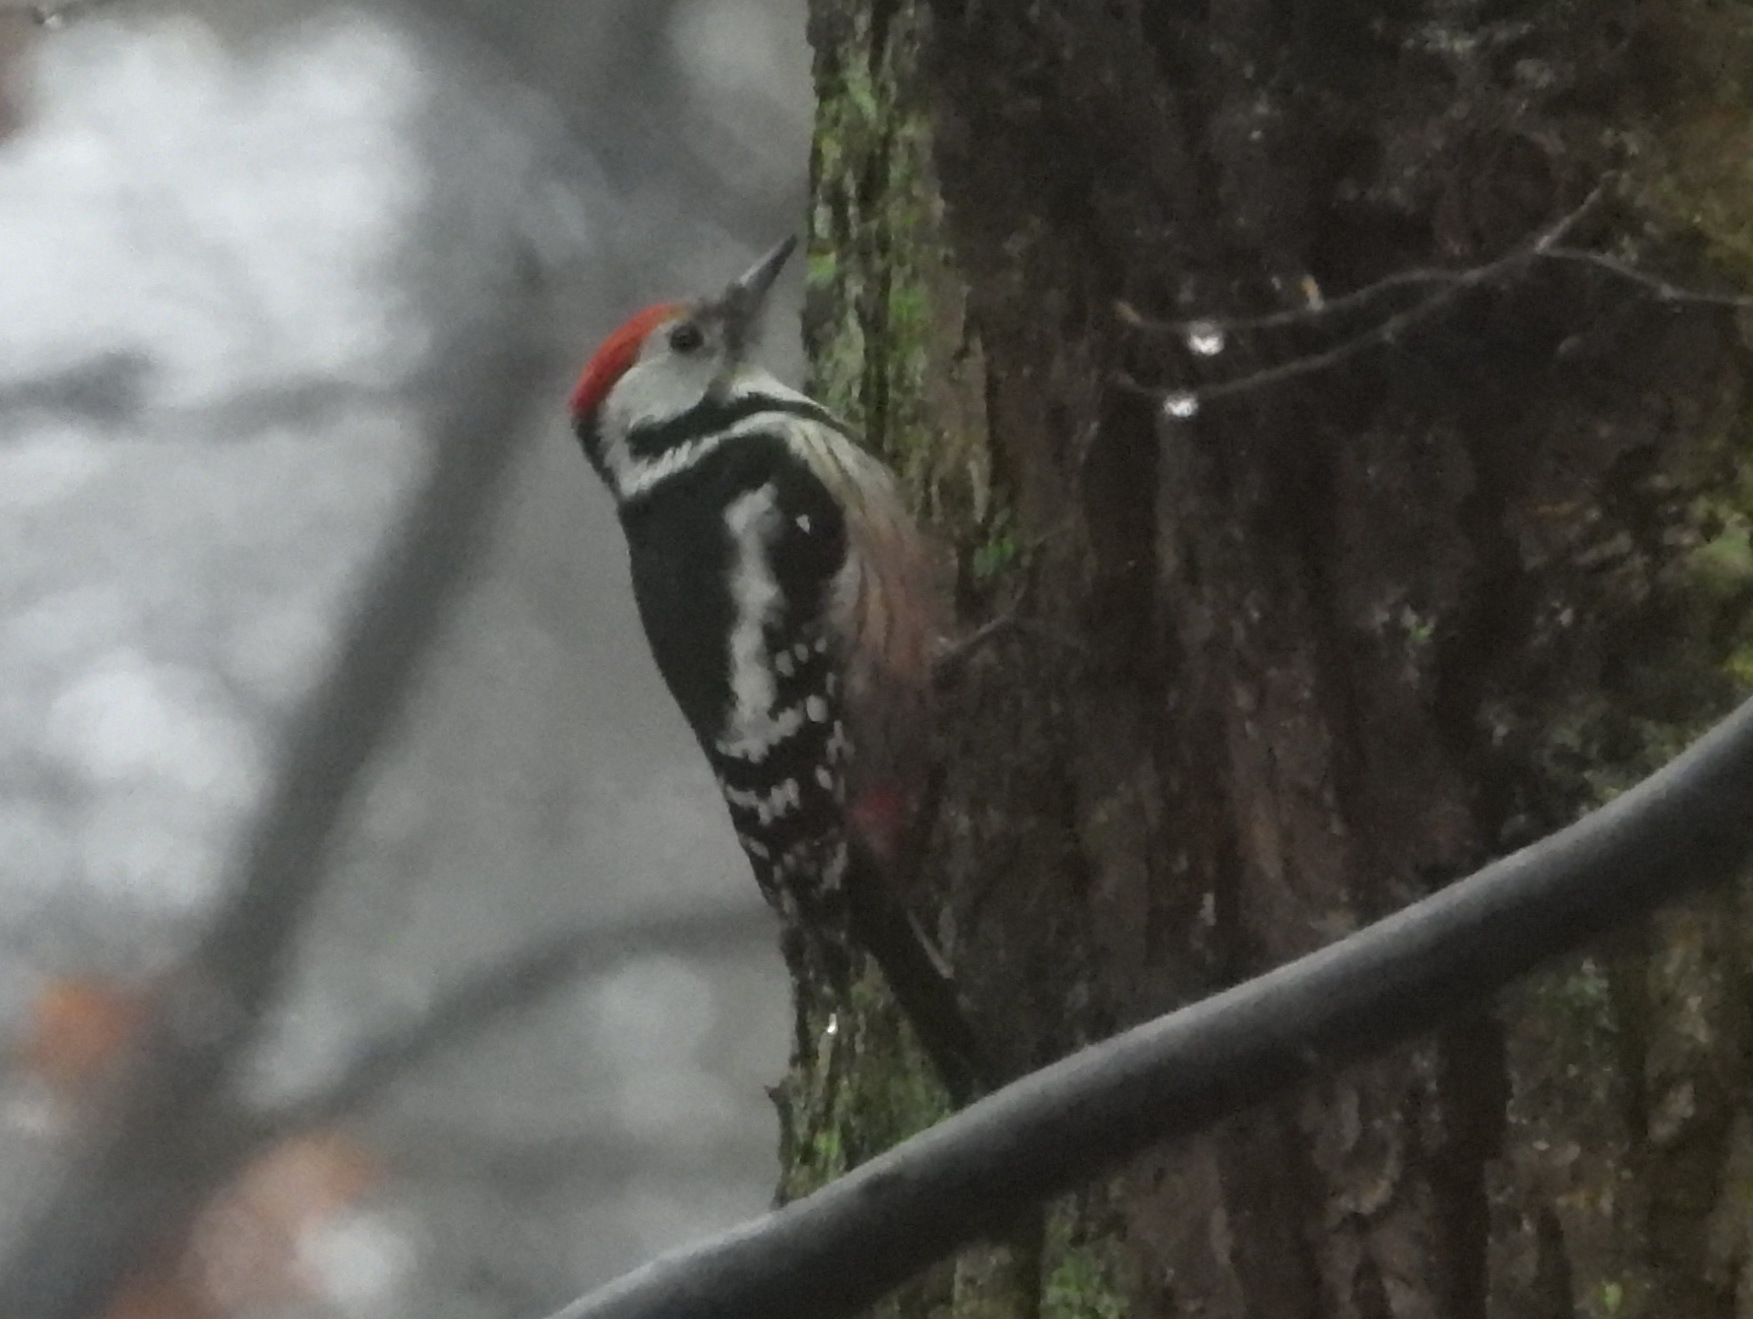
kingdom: Animalia
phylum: Chordata
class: Aves
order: Piciformes
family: Picidae
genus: Dendrocoptes
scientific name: Dendrocoptes medius
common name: Middle spotted woodpecker
